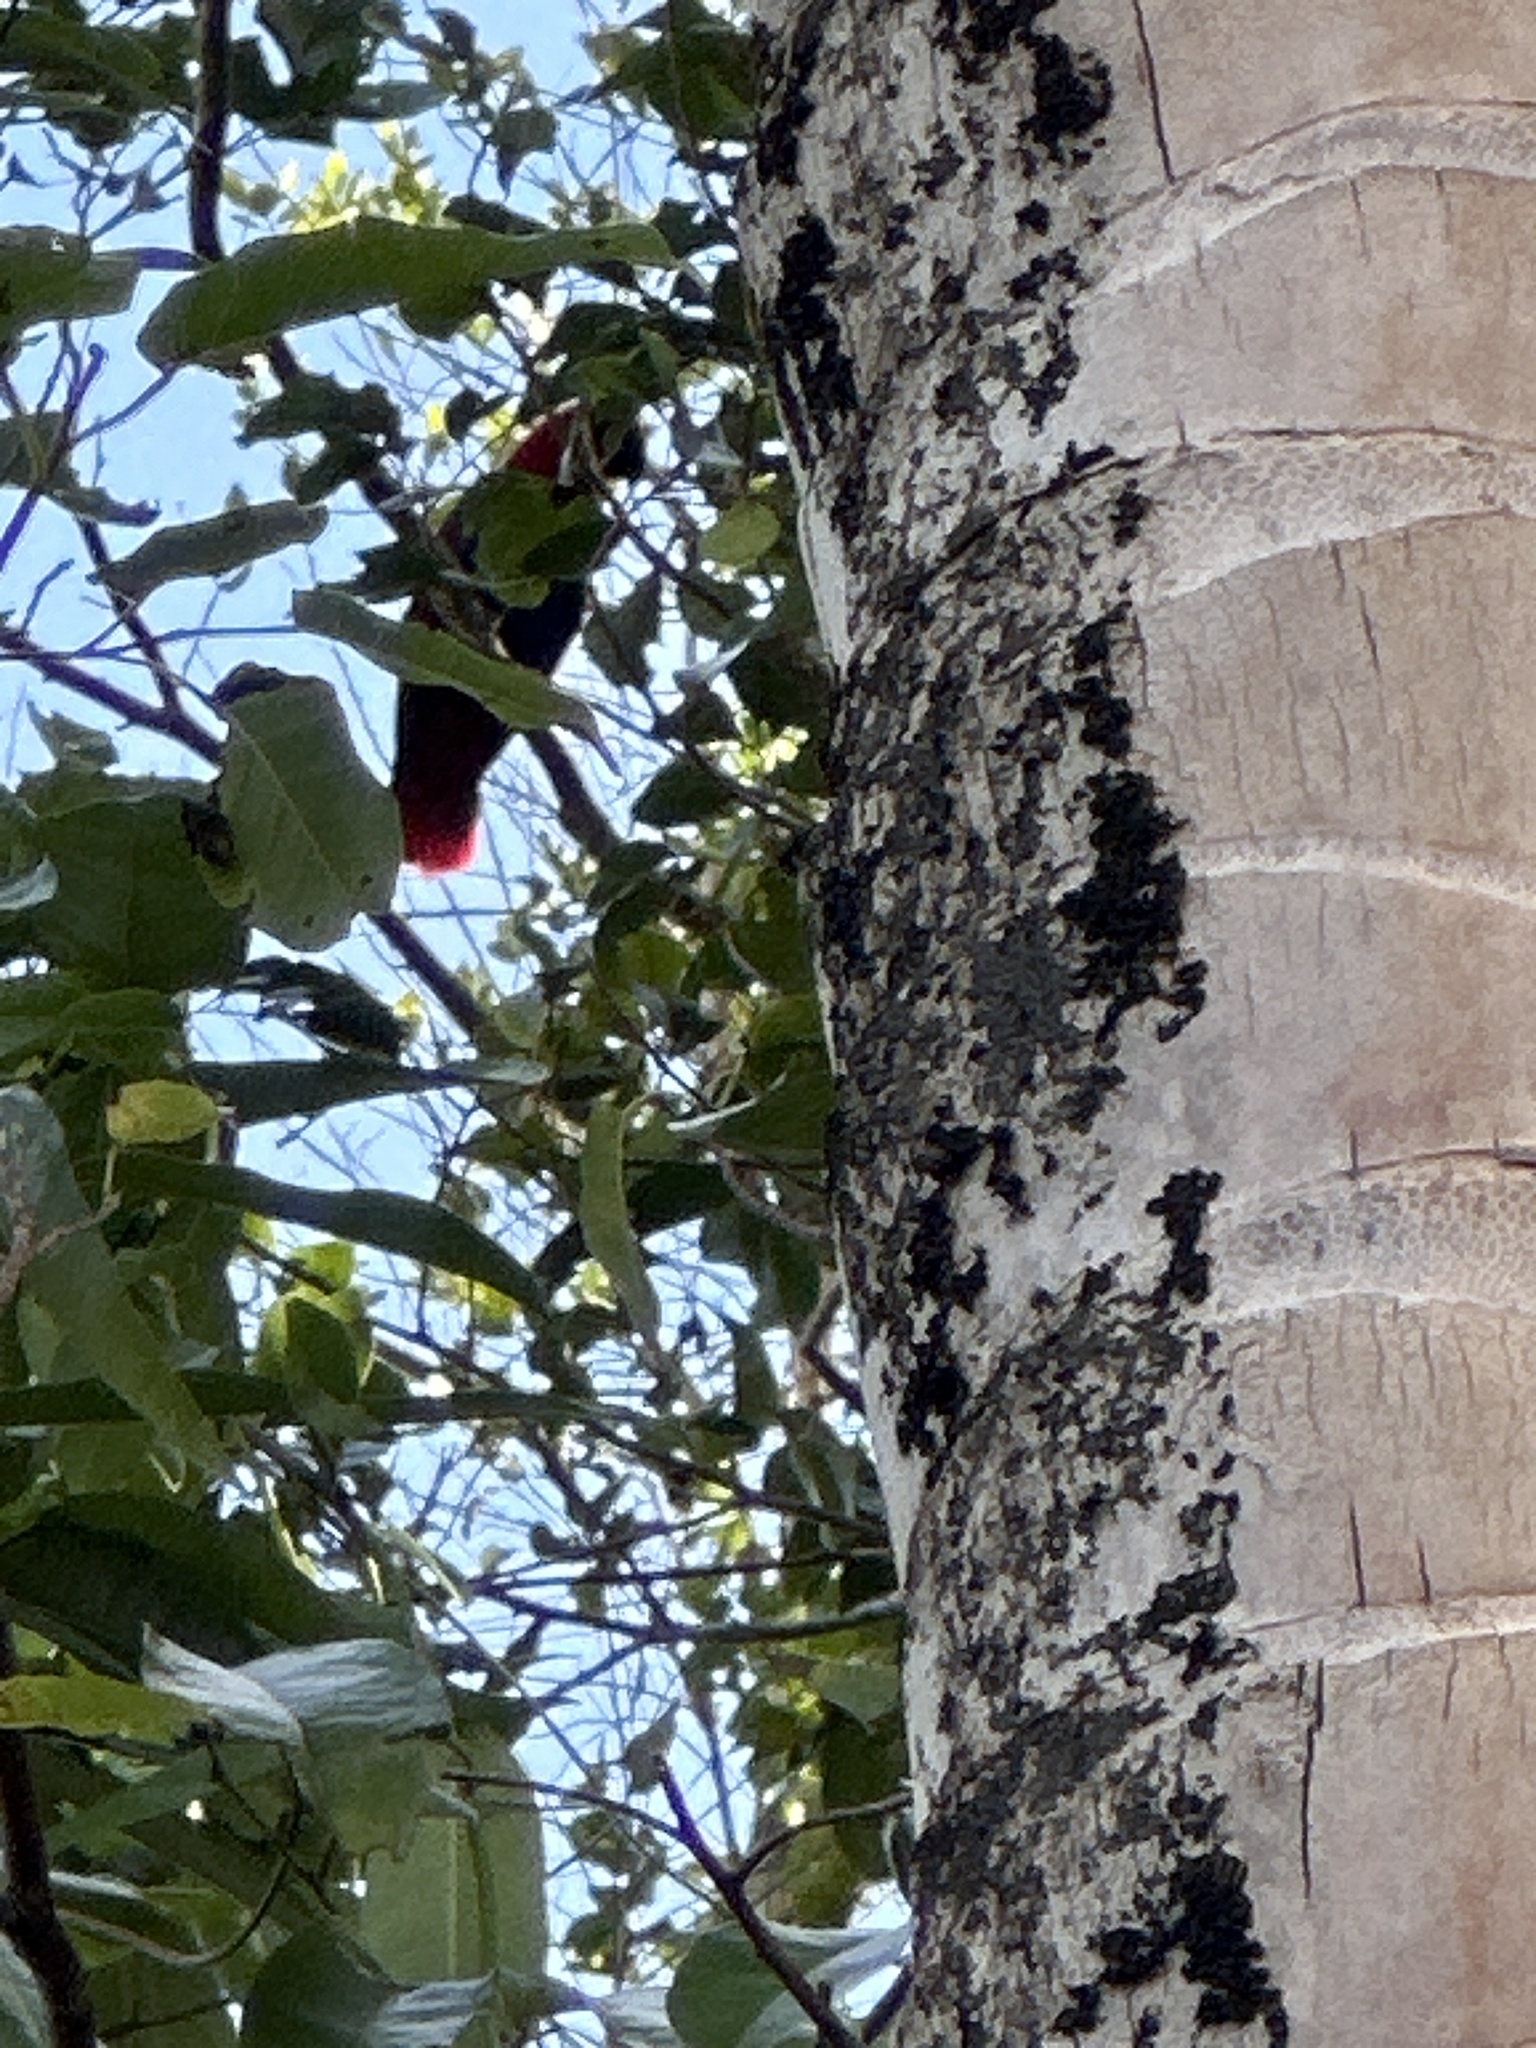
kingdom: Animalia
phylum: Chordata
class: Aves
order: Psittaciformes
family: Psittacidae
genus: Eclectus
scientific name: Eclectus roratus
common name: Eclectus parrot
